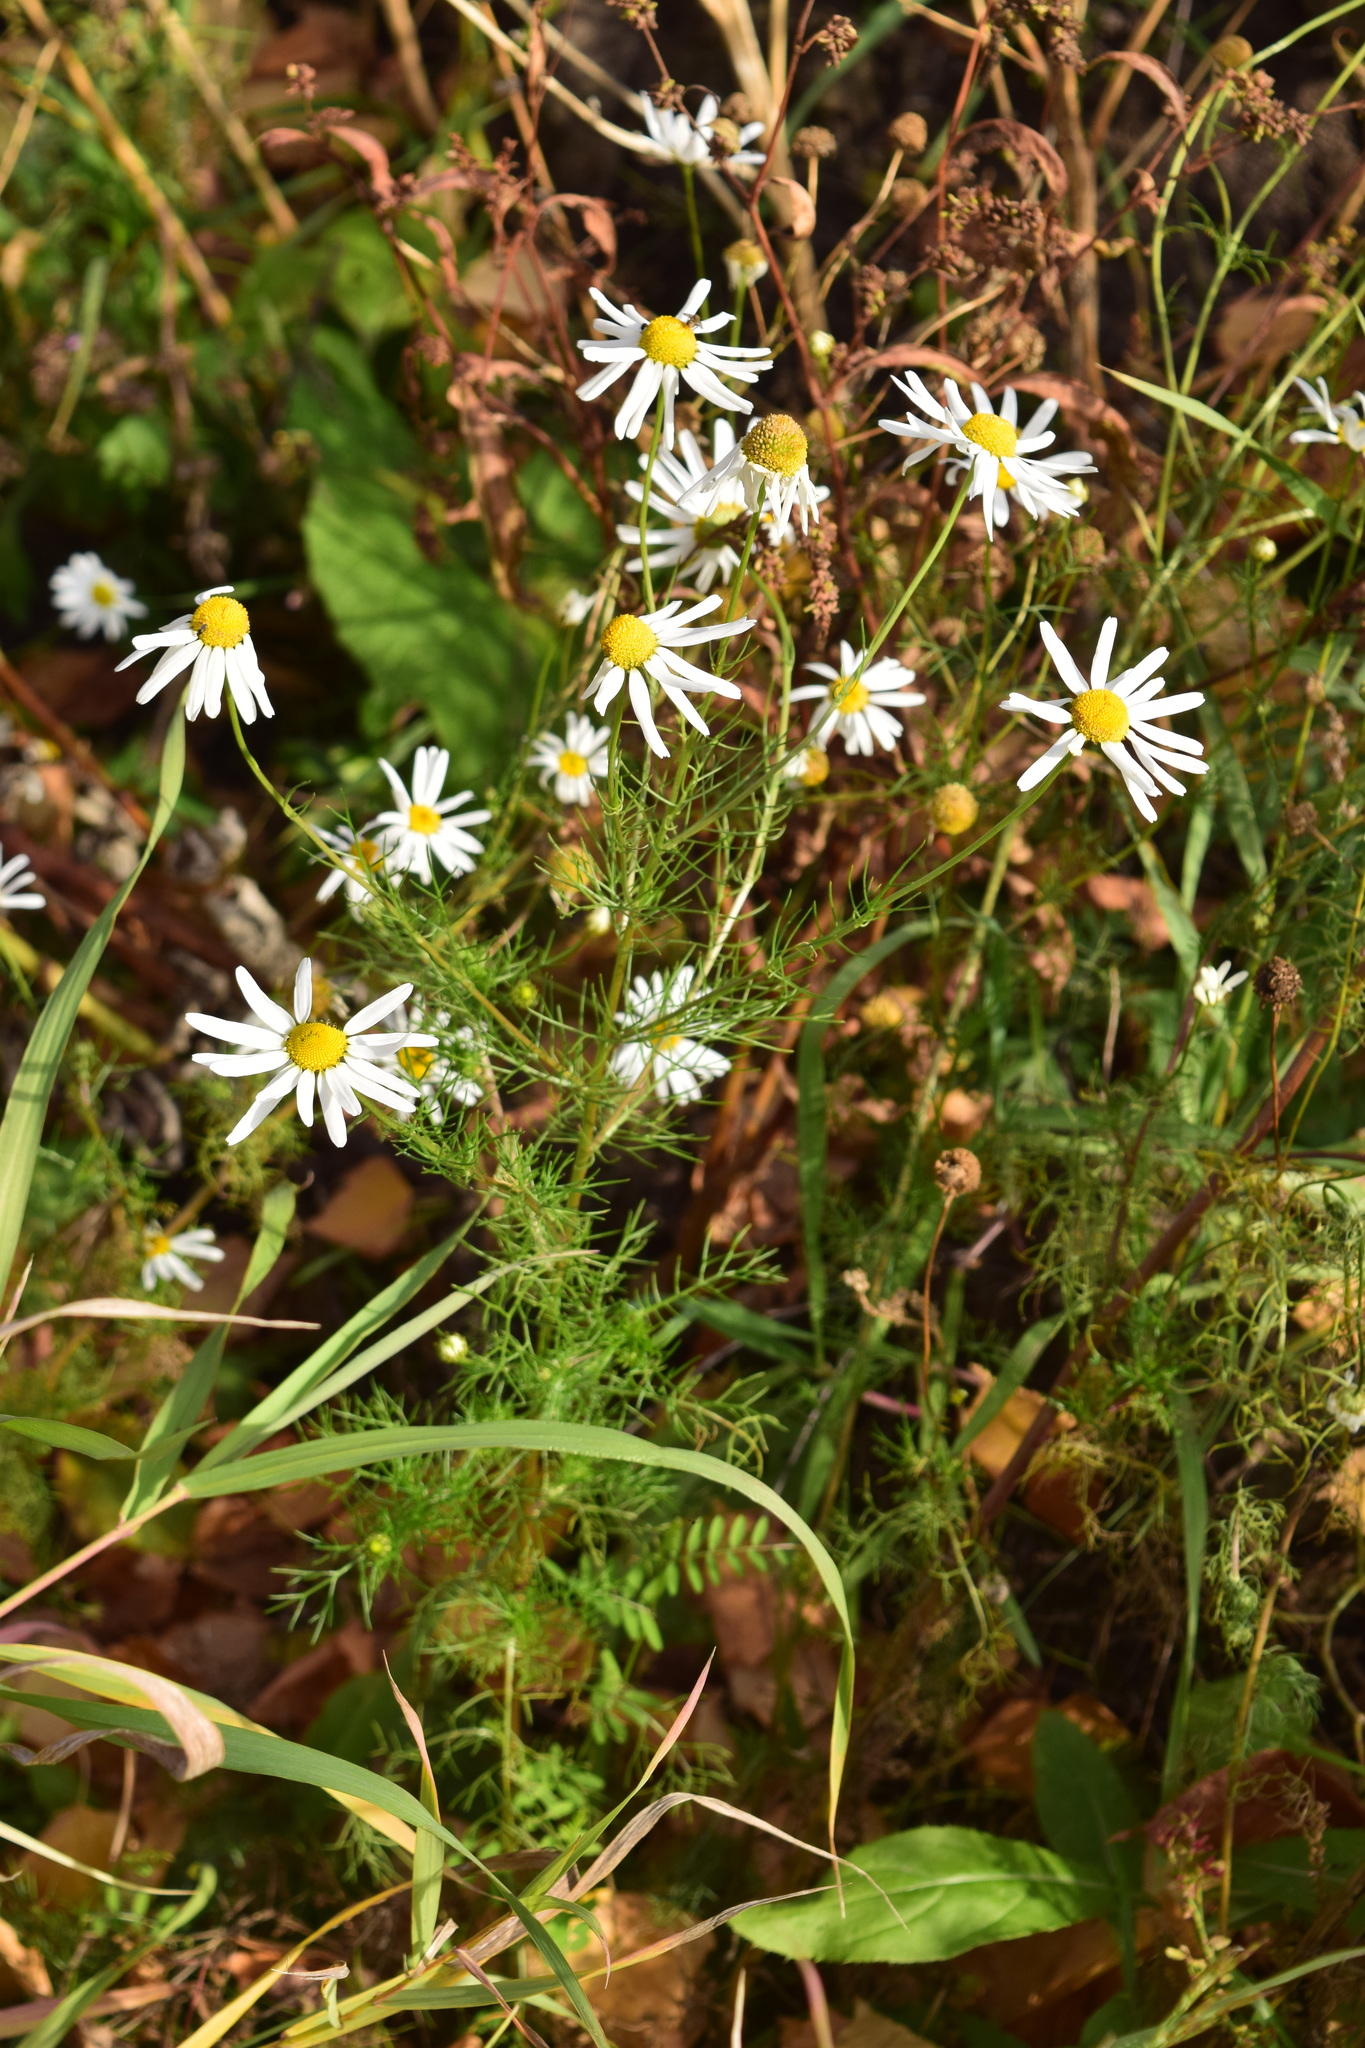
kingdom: Plantae
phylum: Tracheophyta
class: Magnoliopsida
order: Asterales
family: Asteraceae
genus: Tripleurospermum
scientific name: Tripleurospermum inodorum
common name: Scentless mayweed
